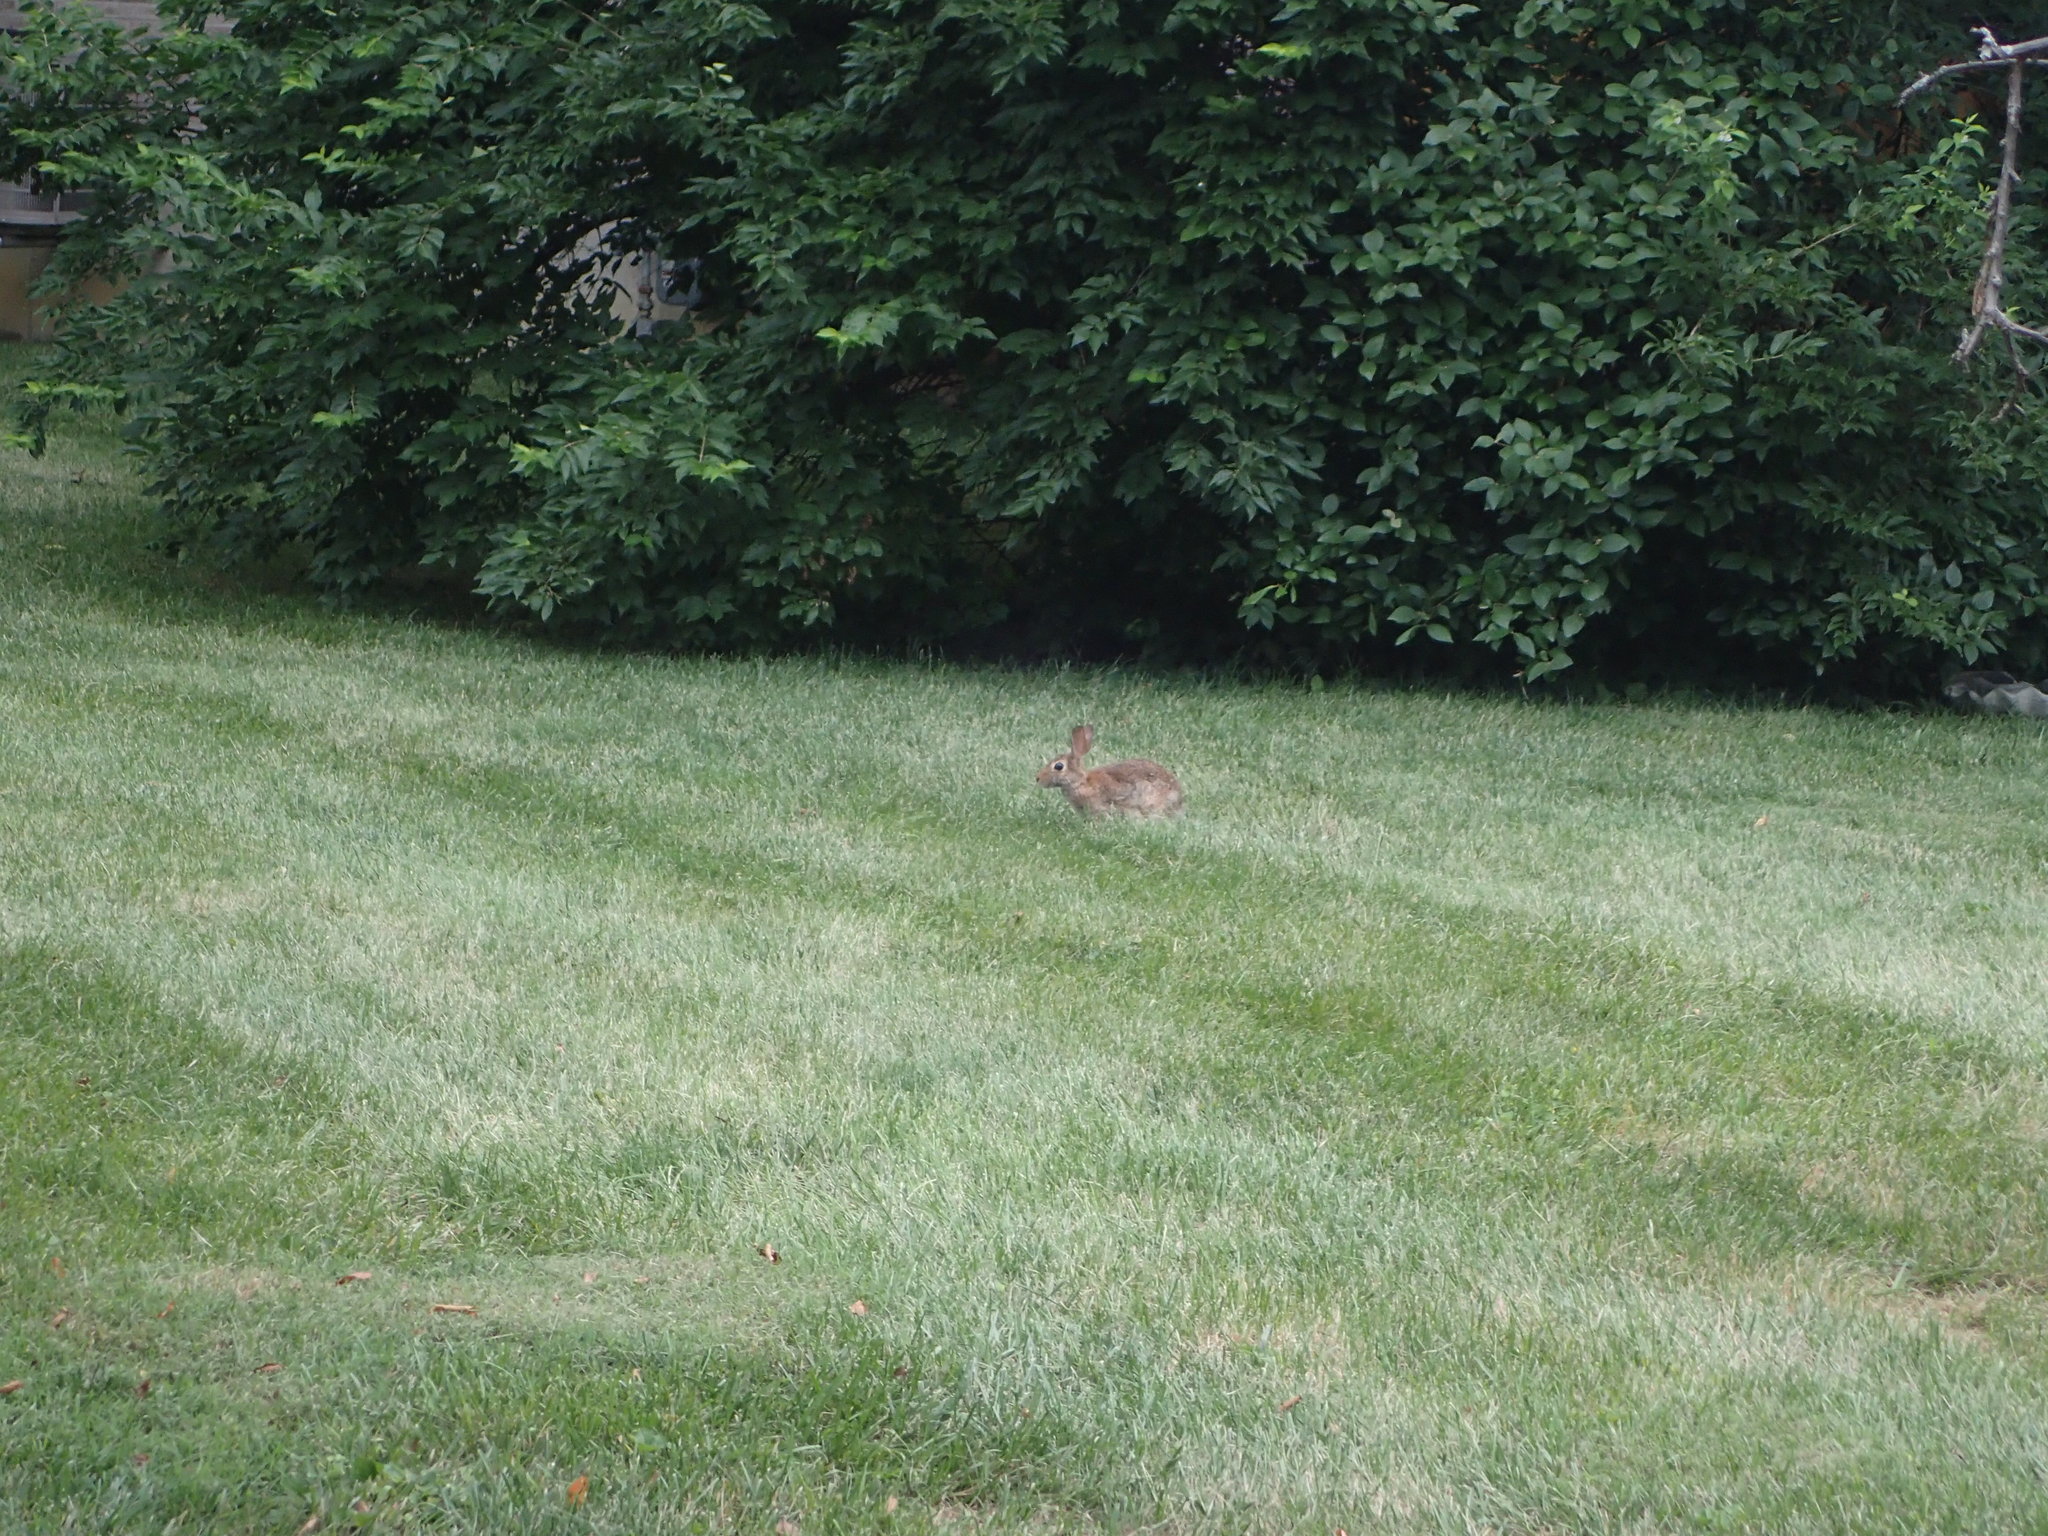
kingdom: Animalia
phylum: Chordata
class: Mammalia
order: Lagomorpha
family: Leporidae
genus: Sylvilagus
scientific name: Sylvilagus floridanus
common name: Eastern cottontail
